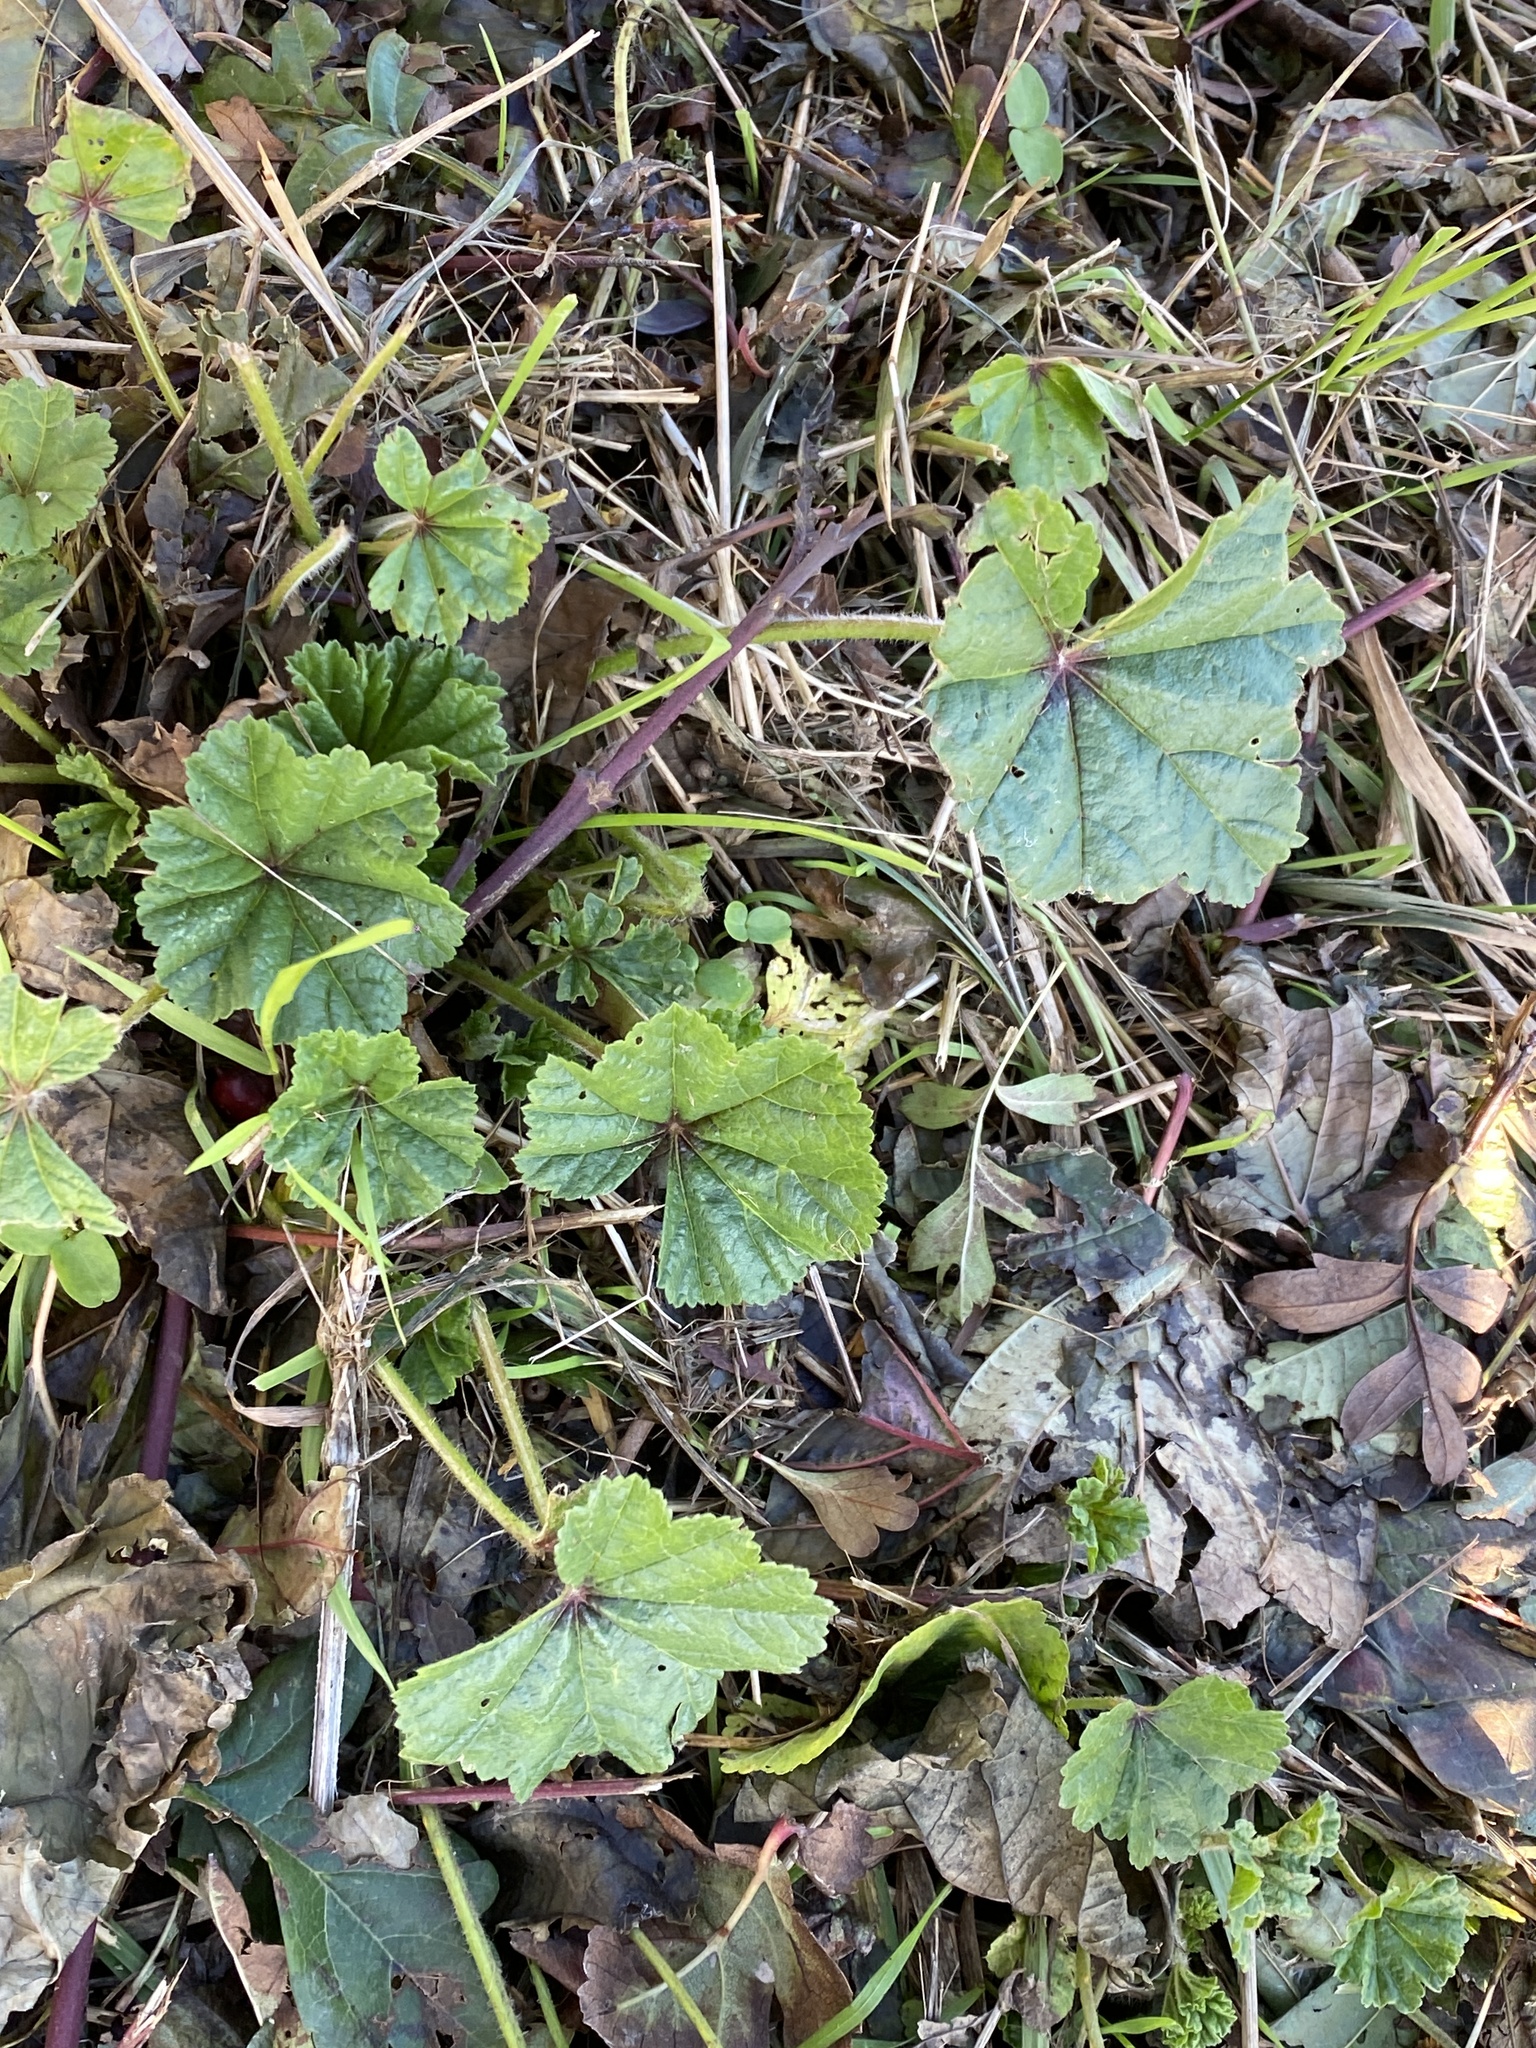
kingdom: Plantae
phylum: Tracheophyta
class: Magnoliopsida
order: Malvales
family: Malvaceae
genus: Malva
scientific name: Malva sylvestris
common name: Common mallow
